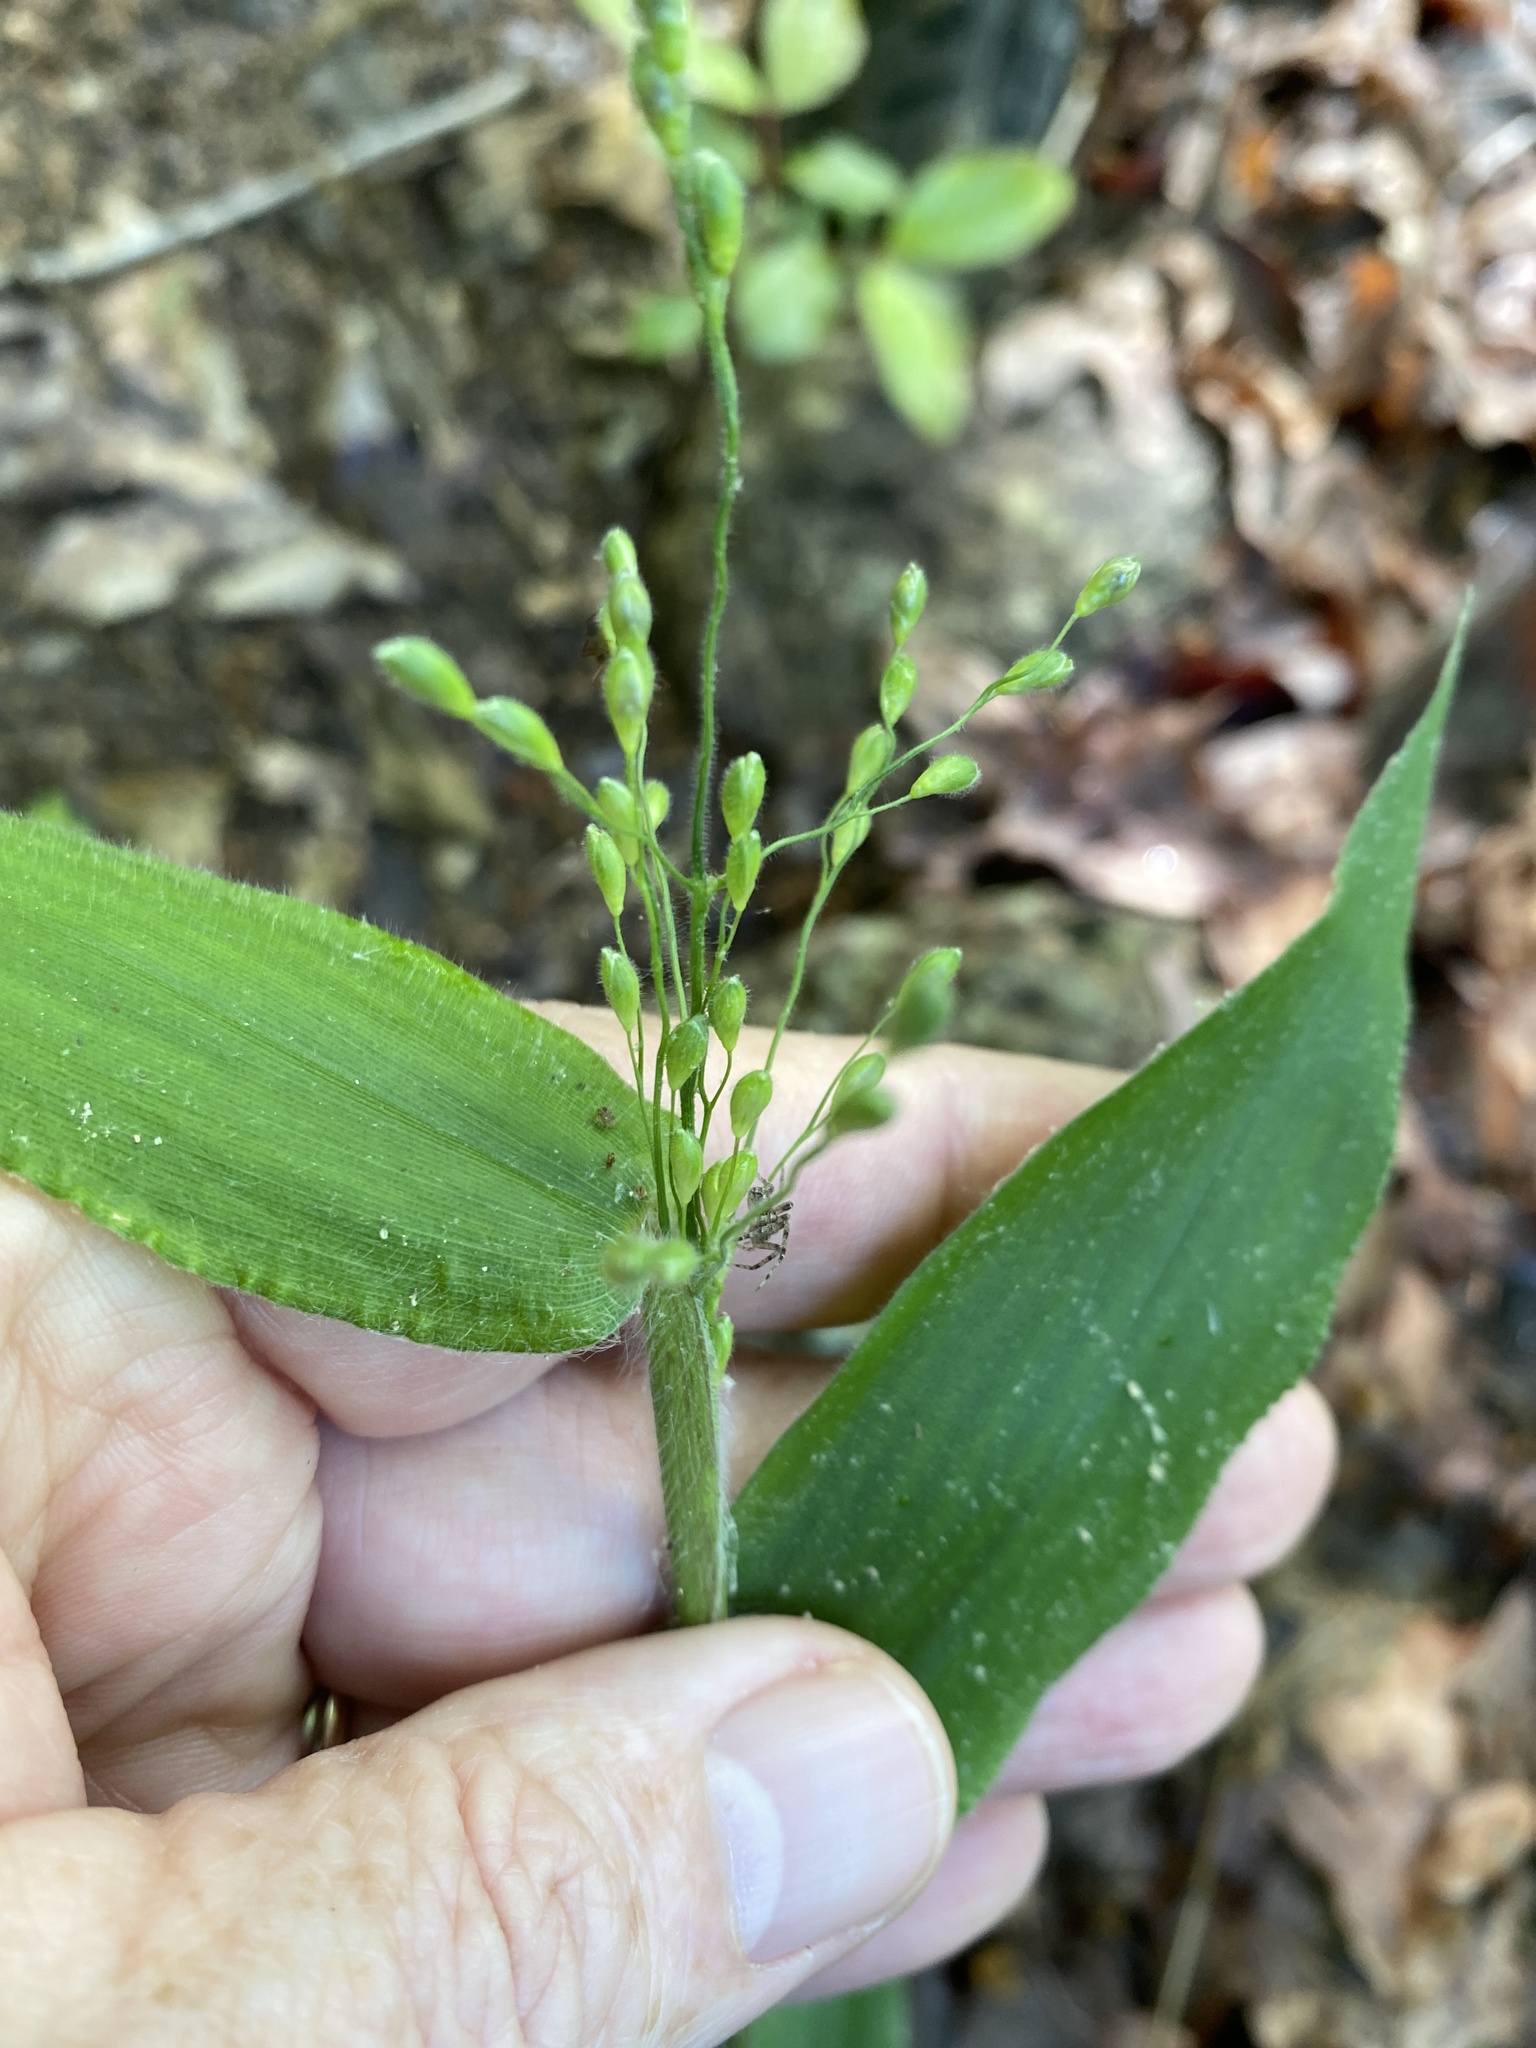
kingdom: Plantae
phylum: Tracheophyta
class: Liliopsida
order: Poales
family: Poaceae
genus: Dichanthelium
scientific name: Dichanthelium boscii
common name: Bosc's panic grass
